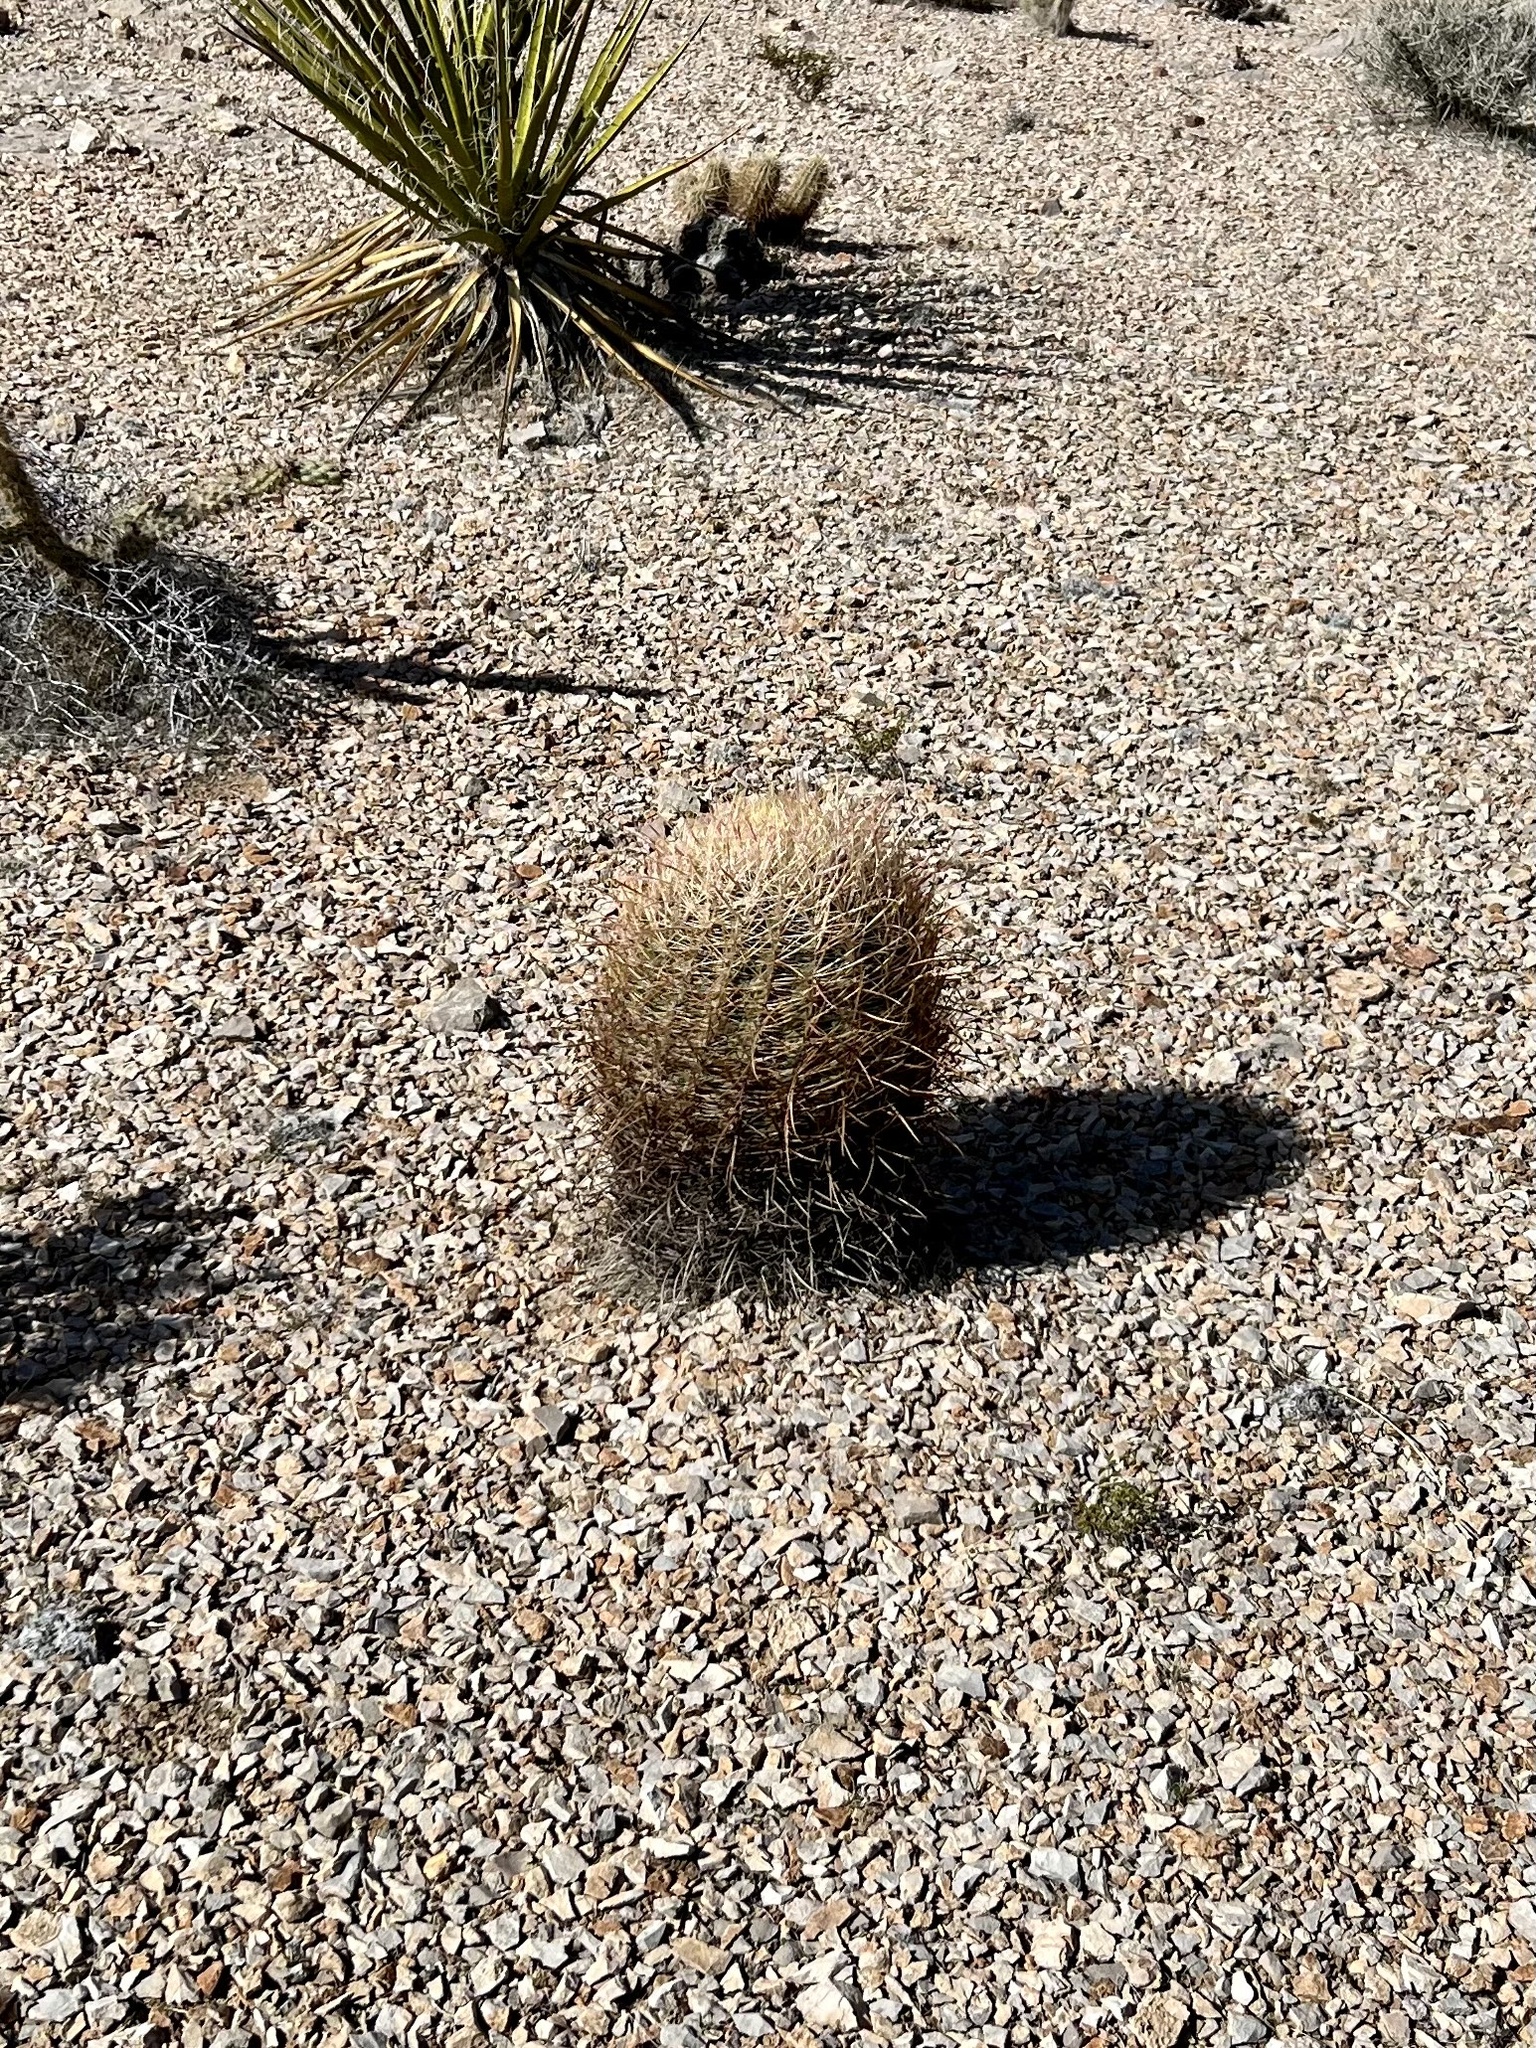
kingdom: Plantae
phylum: Tracheophyta
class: Magnoliopsida
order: Caryophyllales
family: Cactaceae
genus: Ferocactus
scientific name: Ferocactus cylindraceus
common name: California barrel cactus
